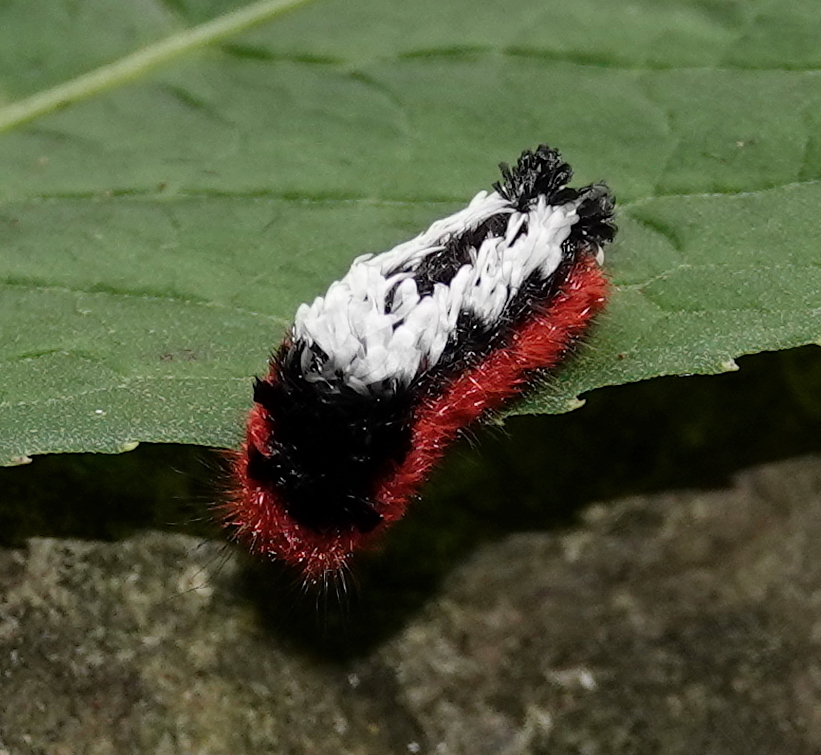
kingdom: Animalia
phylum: Arthropoda
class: Insecta
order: Lepidoptera
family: Bombycidae
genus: Prothysana
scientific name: Prothysana
